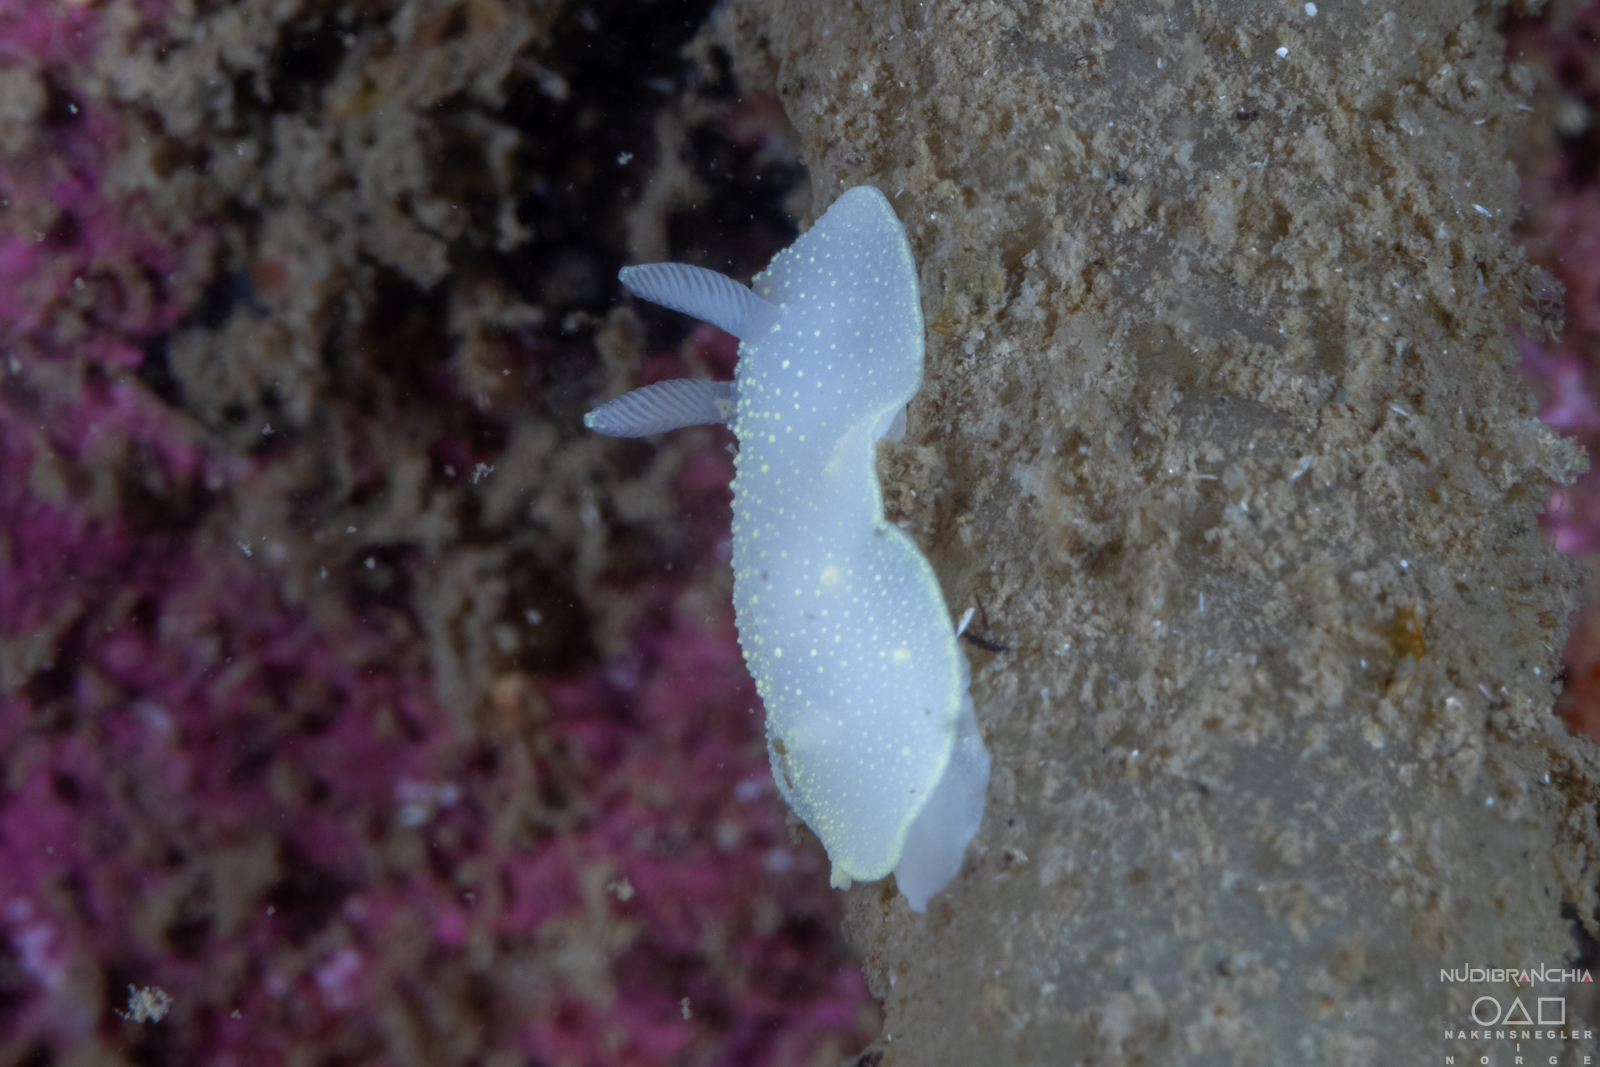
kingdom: Animalia
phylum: Mollusca
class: Gastropoda
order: Nudibranchia
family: Cadlinidae
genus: Cadlina
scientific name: Cadlina laevis
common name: White atlantic cadlina
